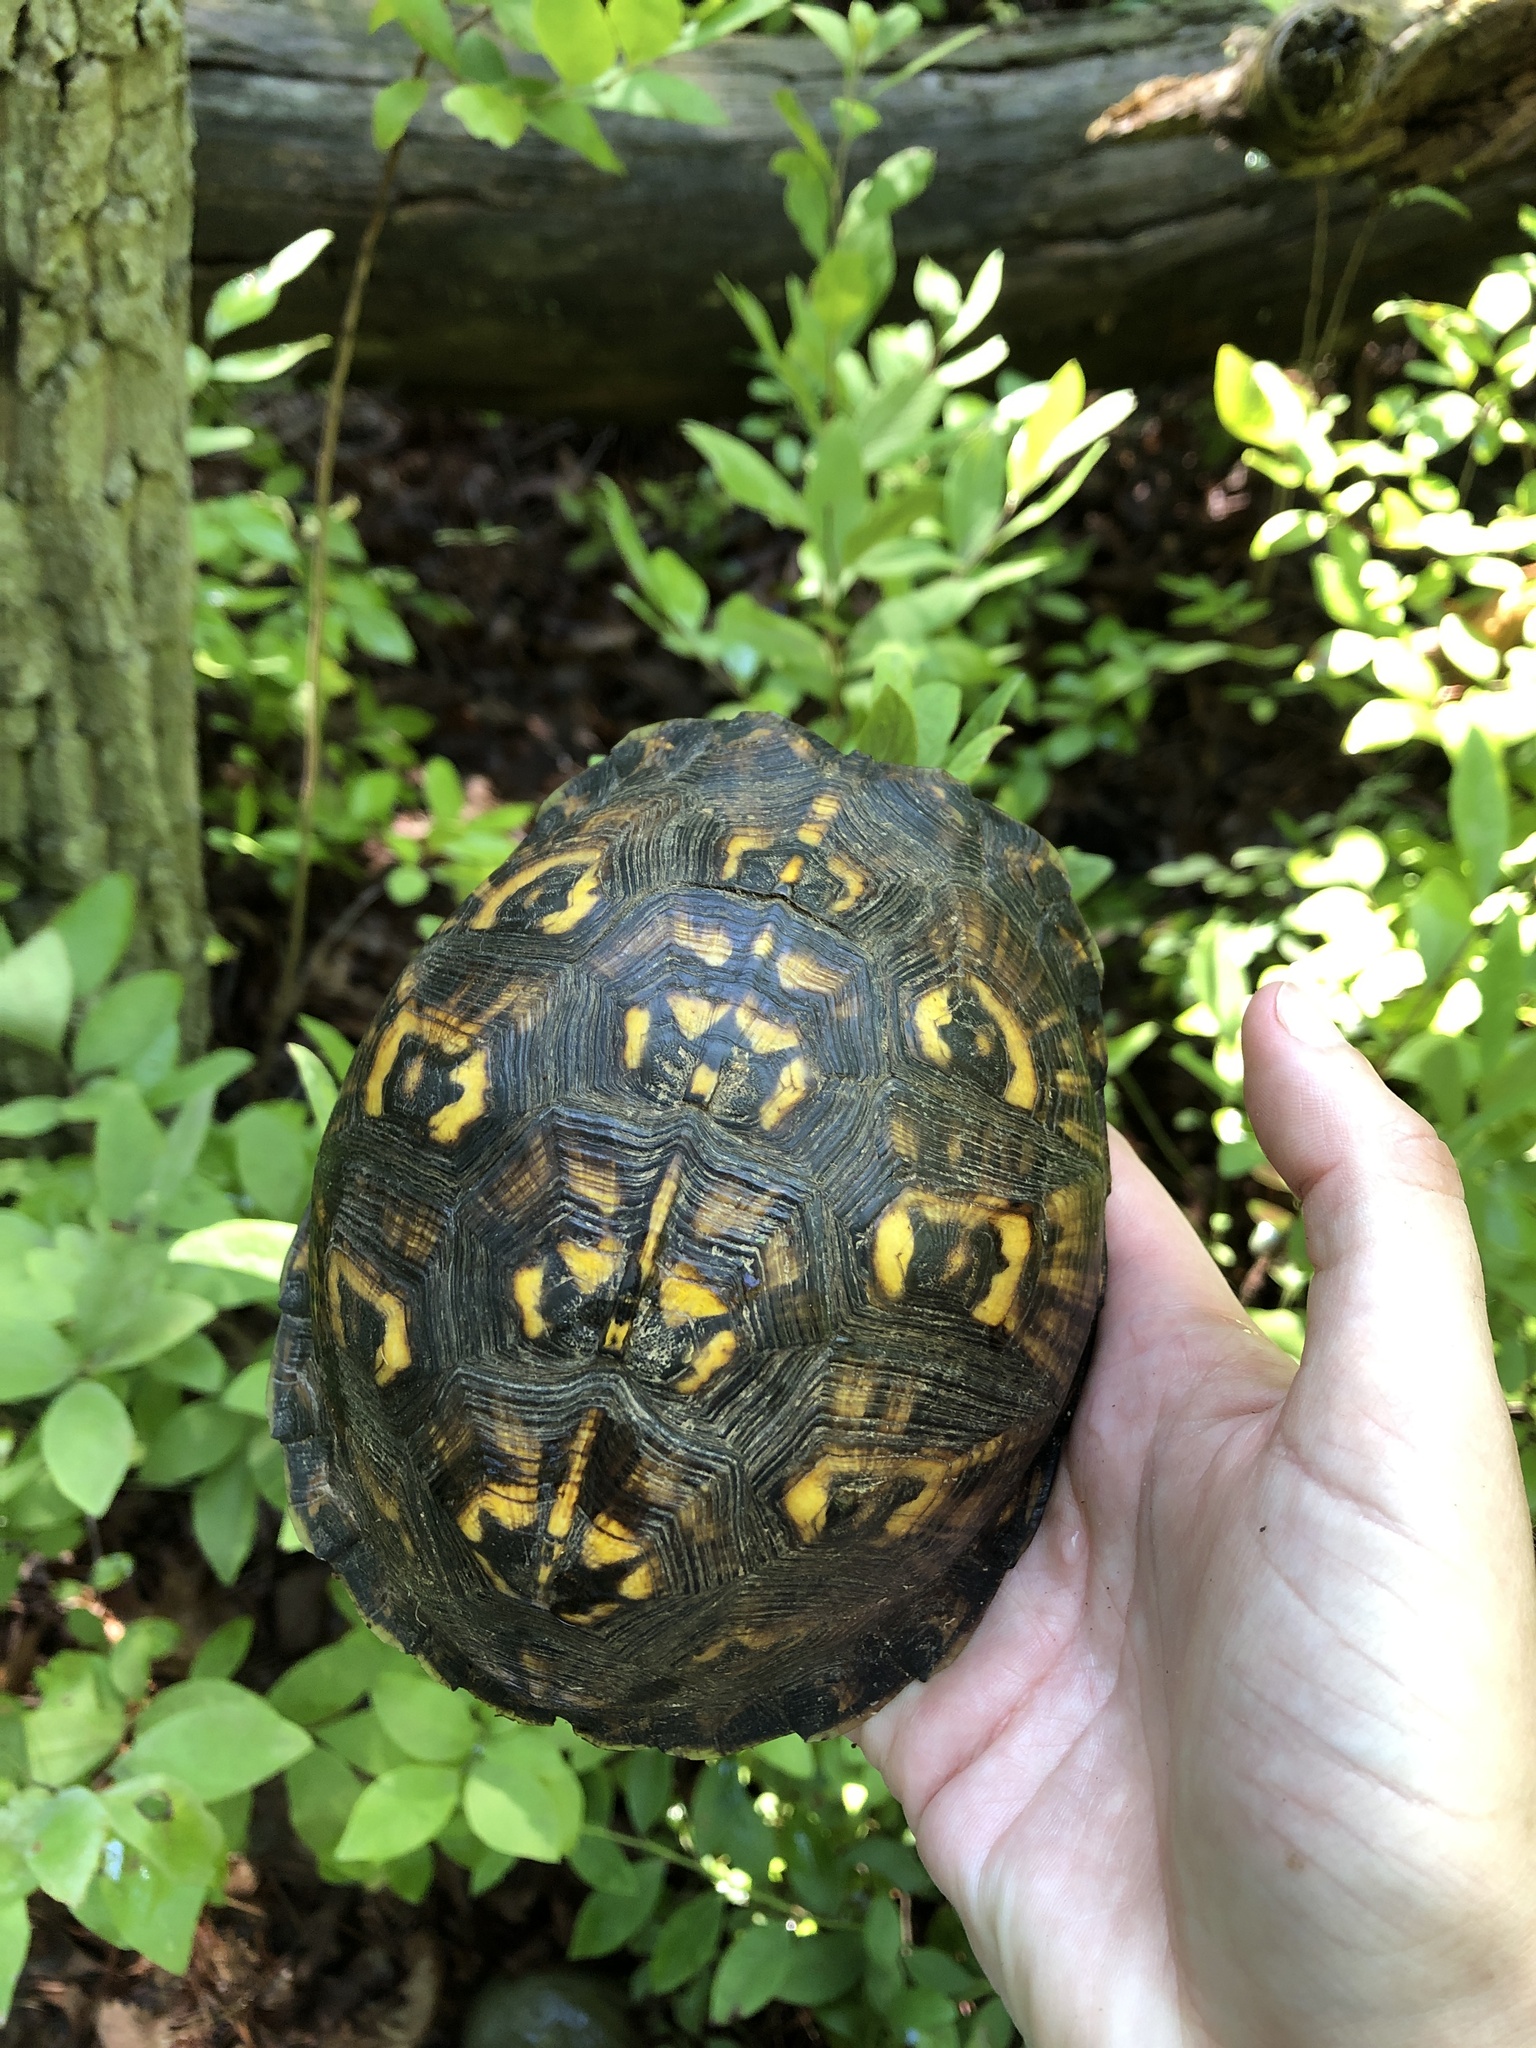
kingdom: Animalia
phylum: Chordata
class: Testudines
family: Emydidae
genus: Terrapene
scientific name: Terrapene carolina
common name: Common box turtle
